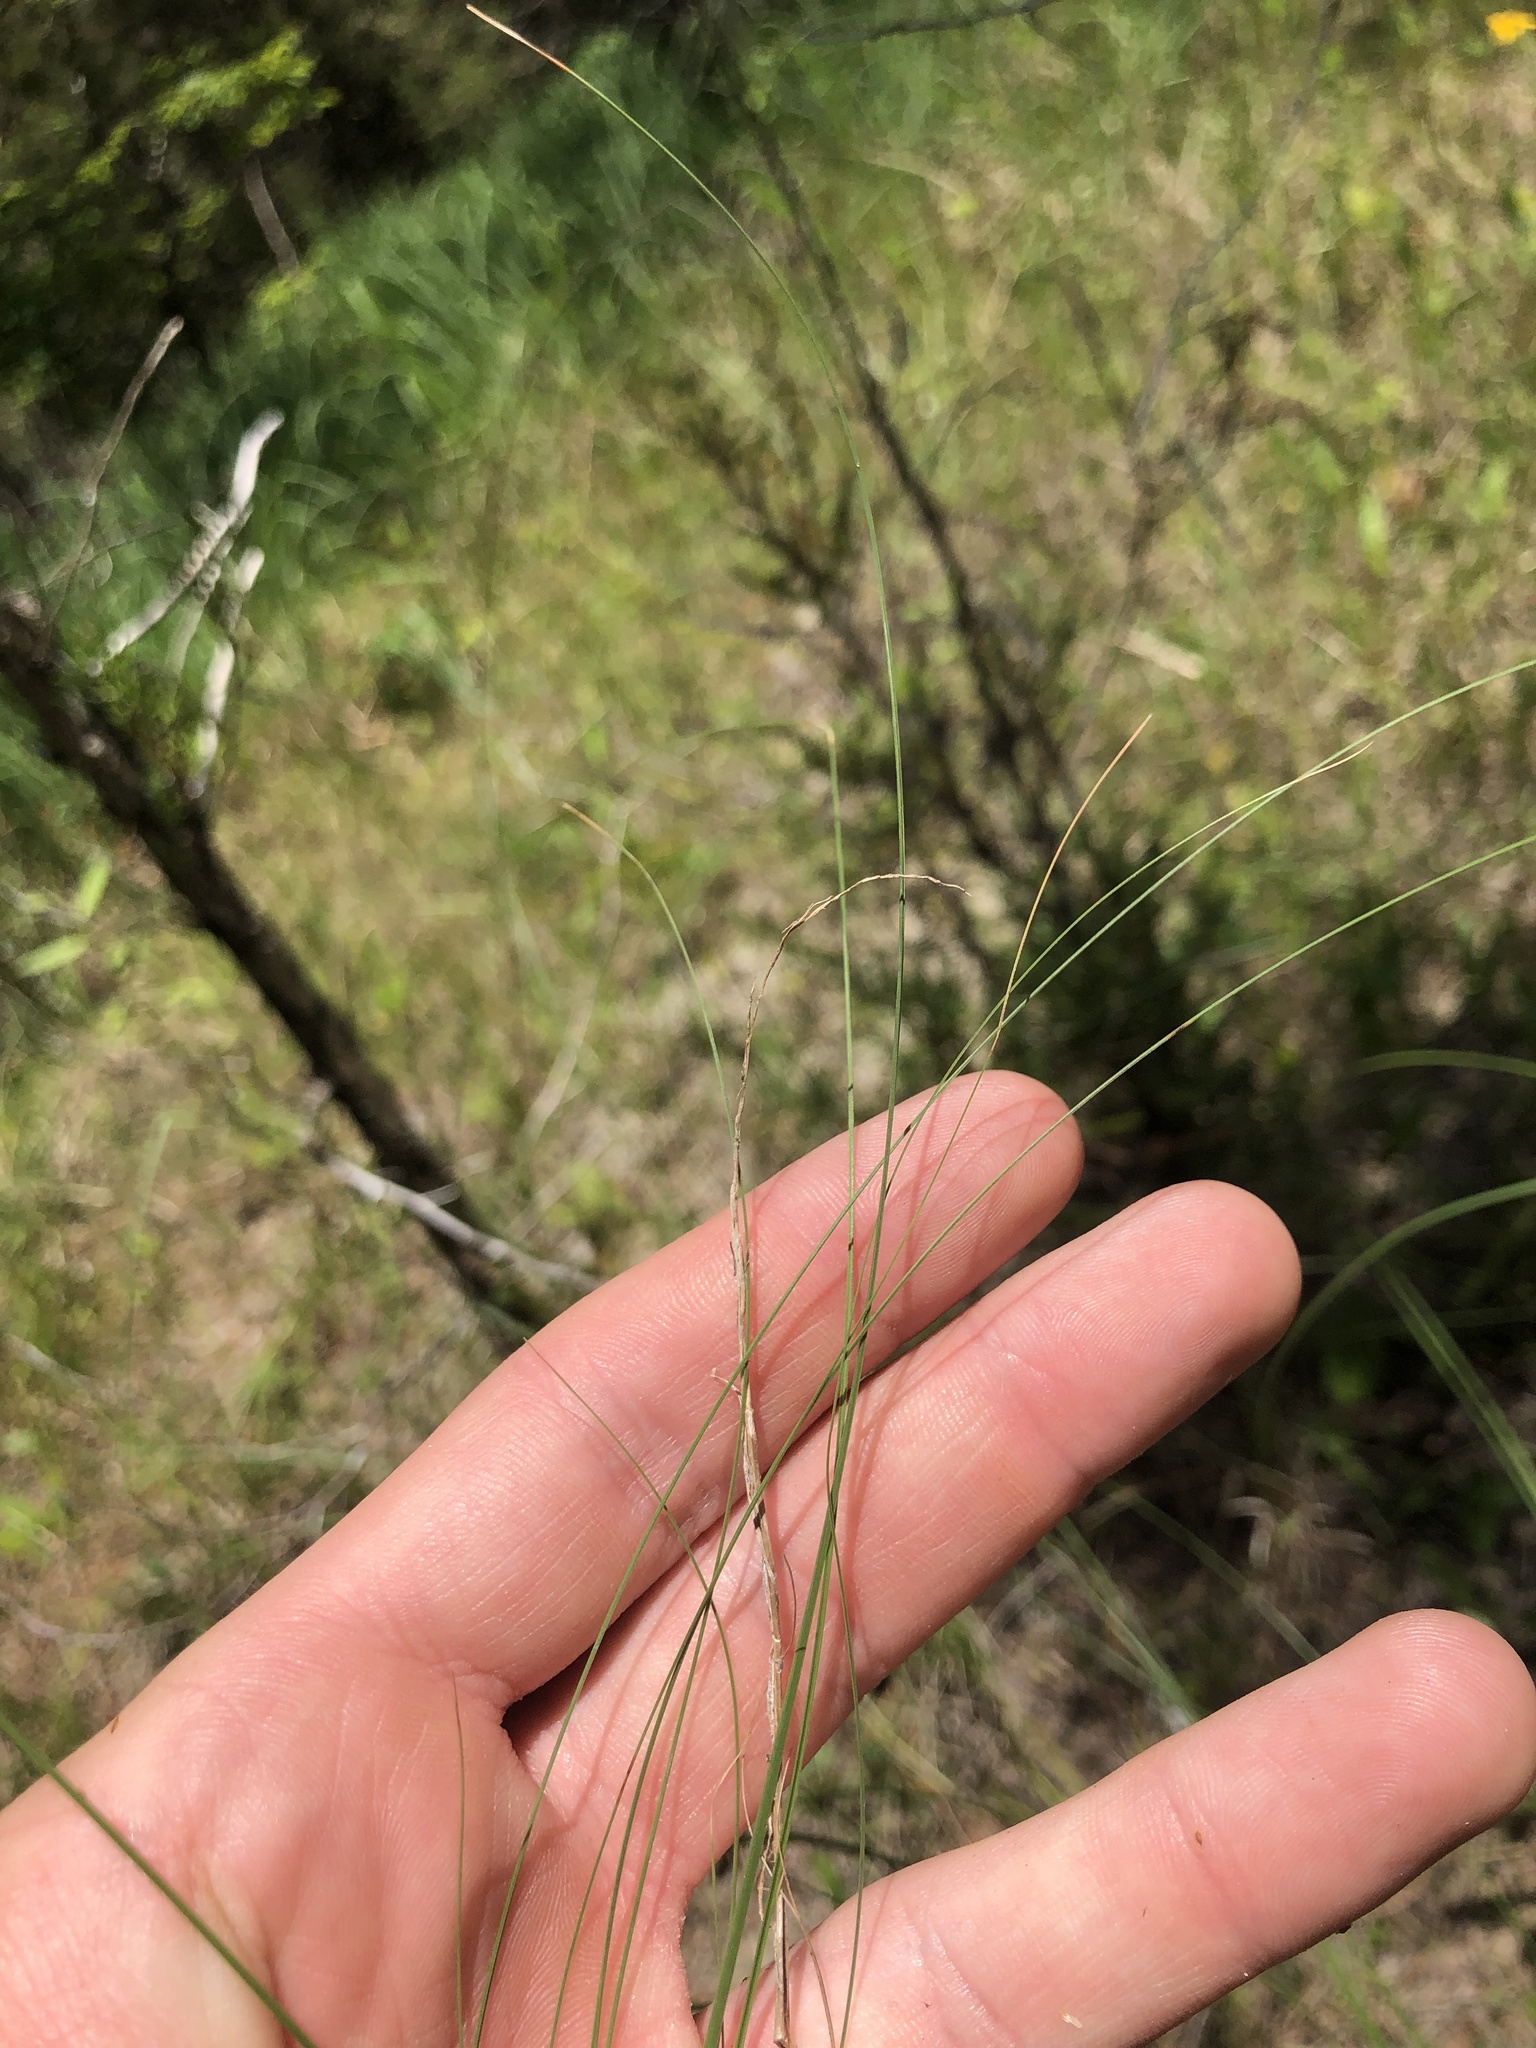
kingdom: Plantae
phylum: Tracheophyta
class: Liliopsida
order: Poales
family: Poaceae
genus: Sporobolus
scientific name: Sporobolus compositus
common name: Rough dropseed
